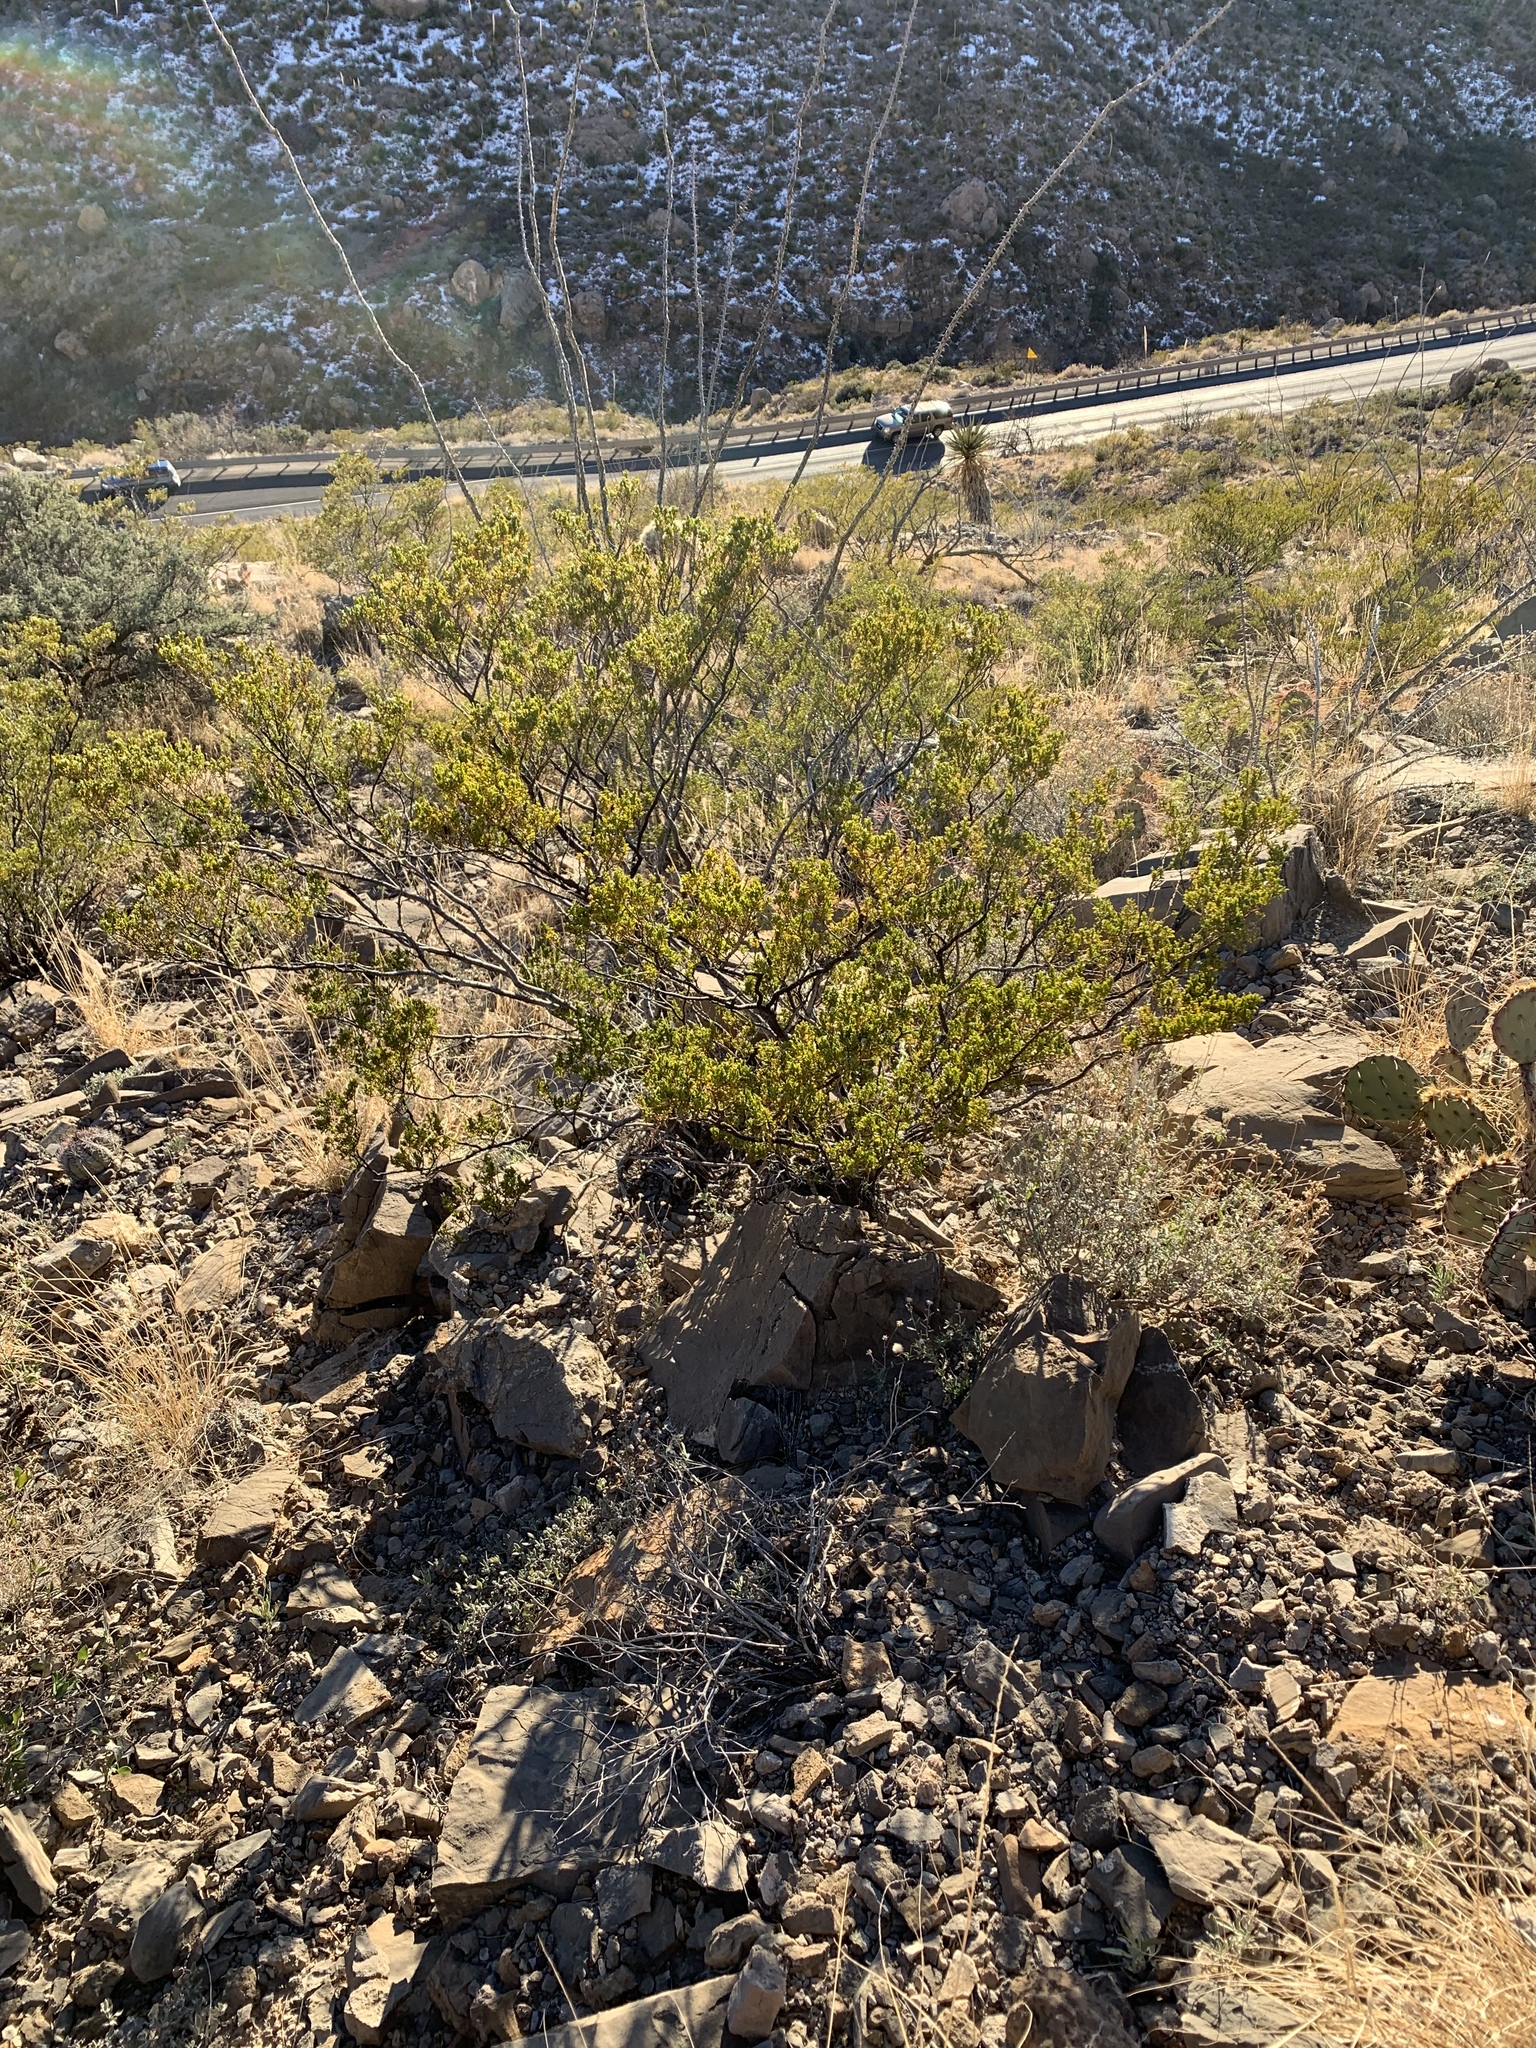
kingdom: Plantae
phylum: Tracheophyta
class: Magnoliopsida
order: Zygophyllales
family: Zygophyllaceae
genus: Larrea
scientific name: Larrea tridentata
